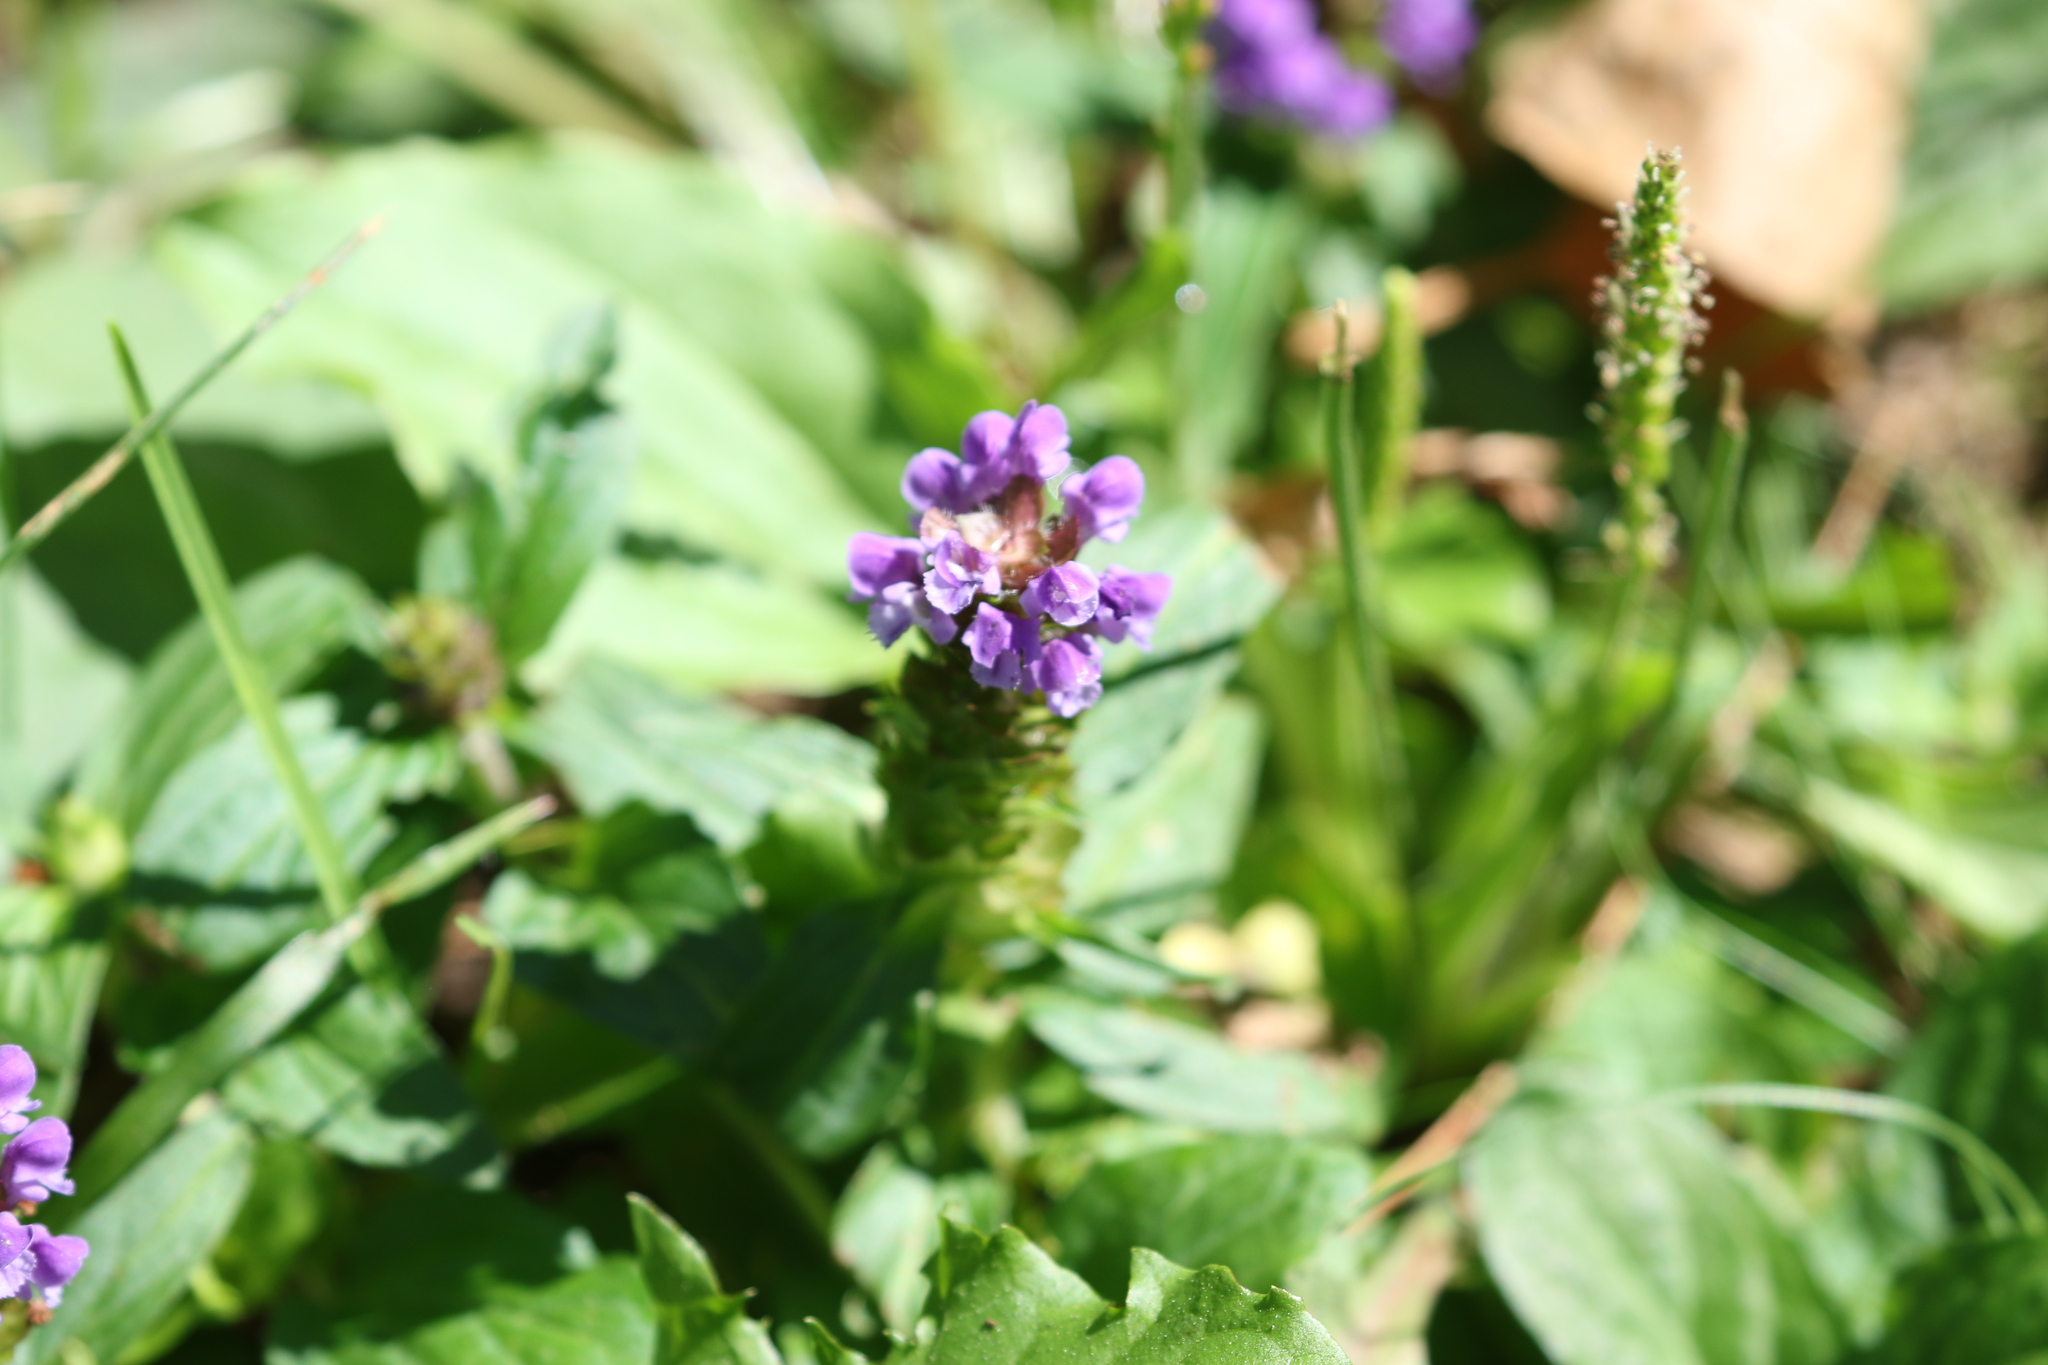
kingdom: Plantae
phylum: Tracheophyta
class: Magnoliopsida
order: Lamiales
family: Lamiaceae
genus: Prunella
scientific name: Prunella vulgaris
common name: Heal-all
